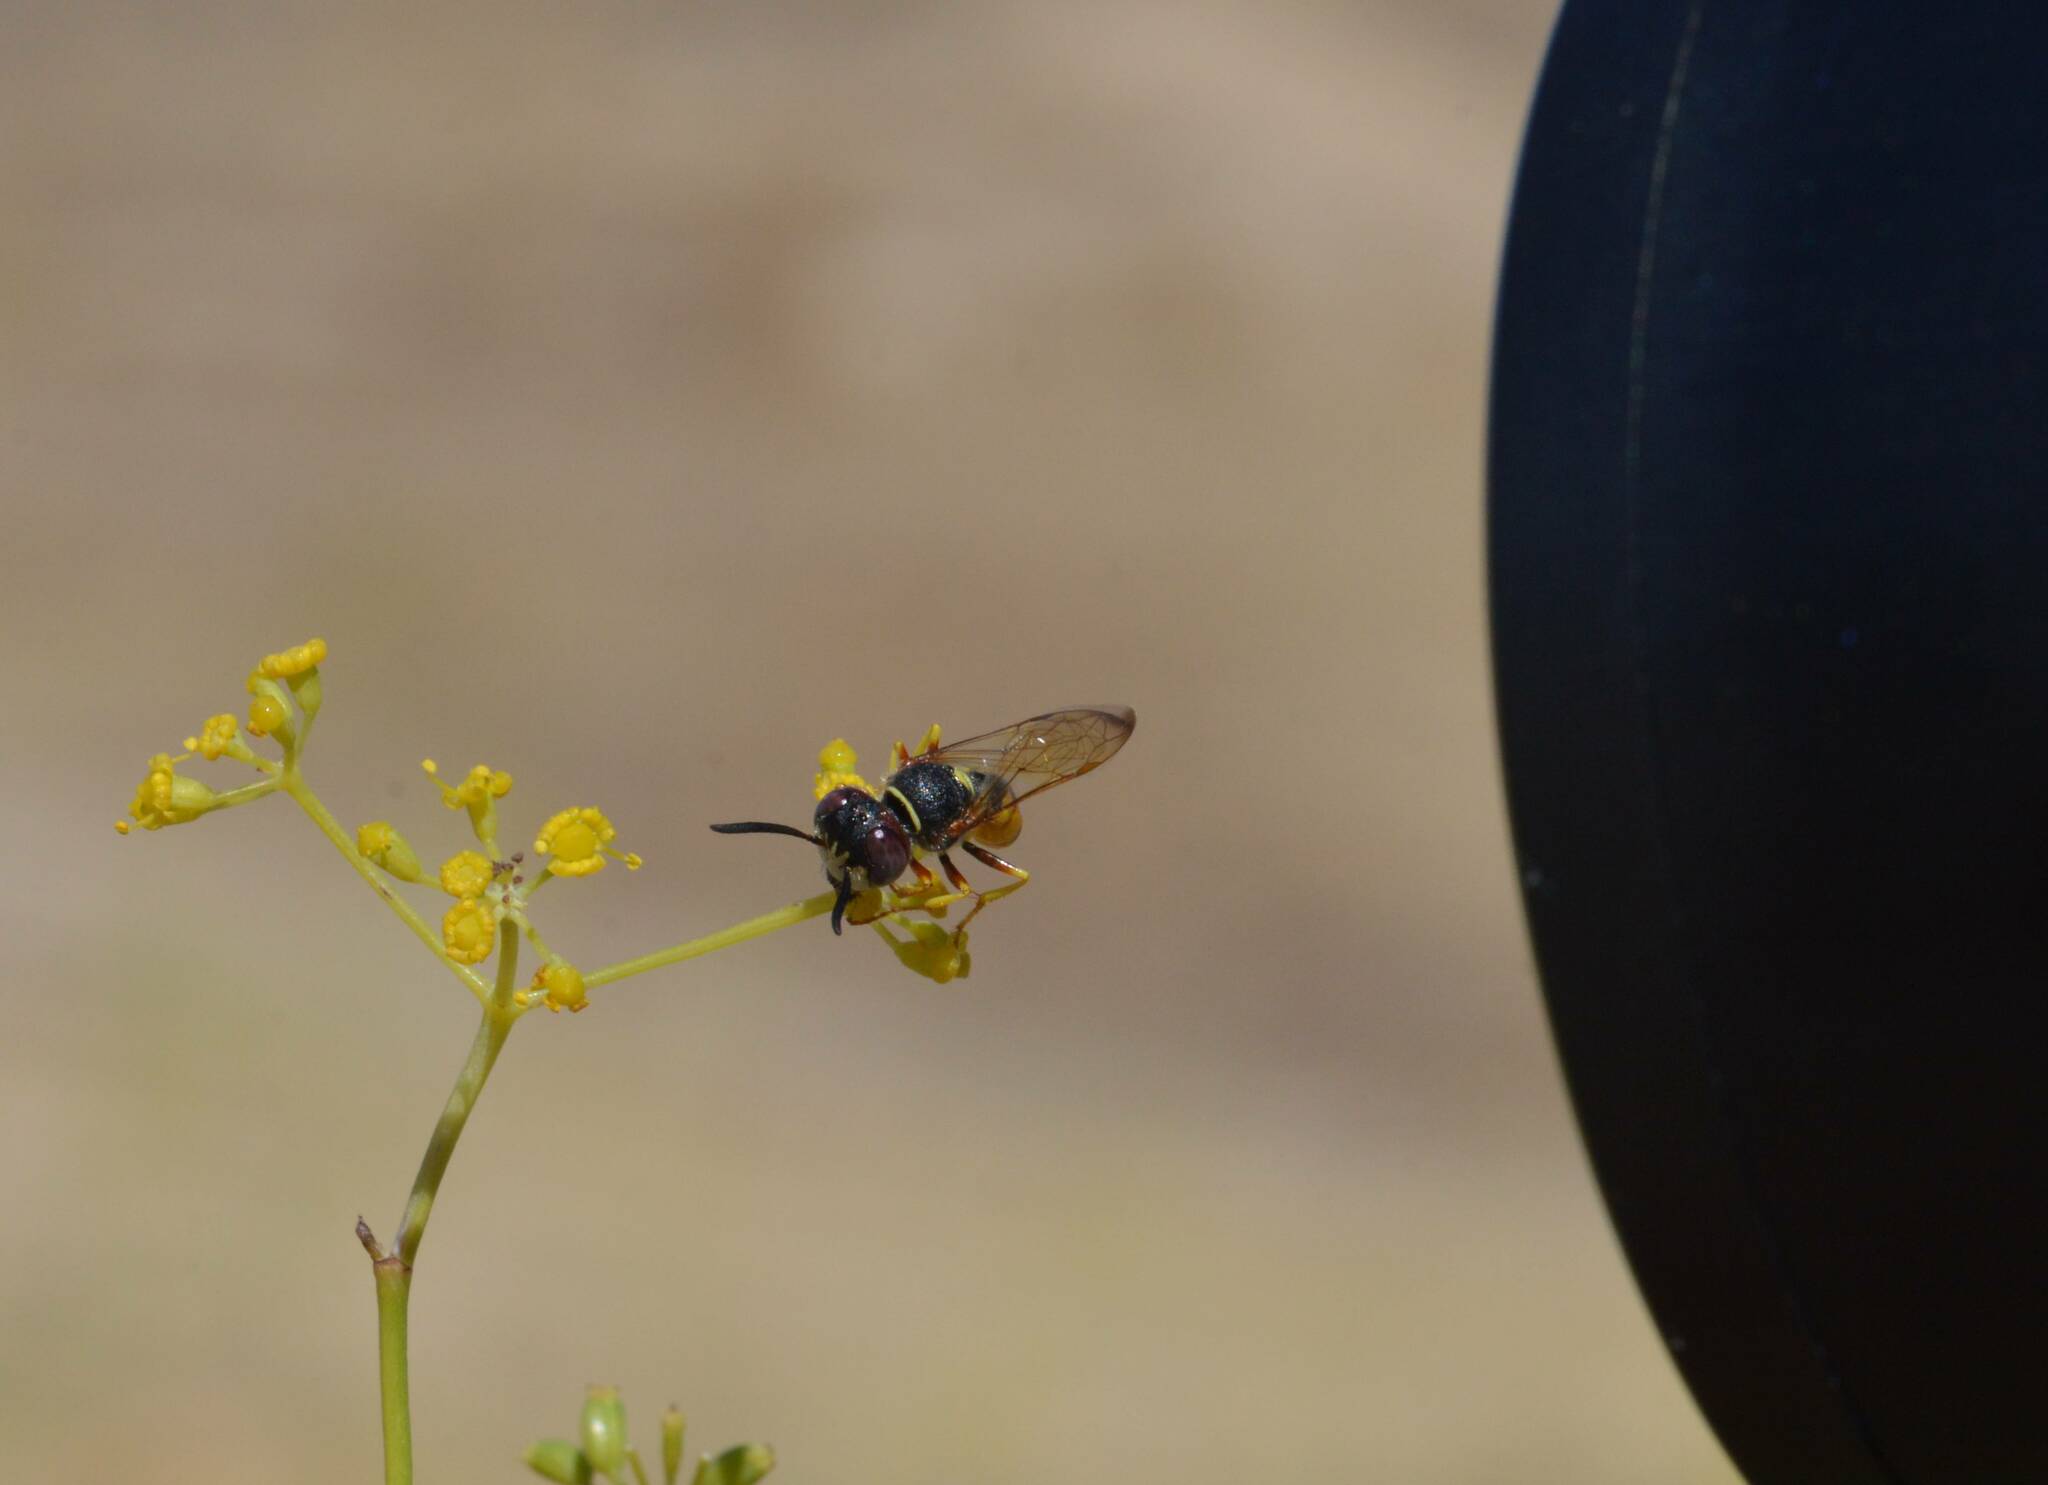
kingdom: Animalia
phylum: Arthropoda
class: Insecta
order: Hymenoptera
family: Crabronidae
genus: Philanthus
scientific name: Philanthus triangulum
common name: Bee wolf
